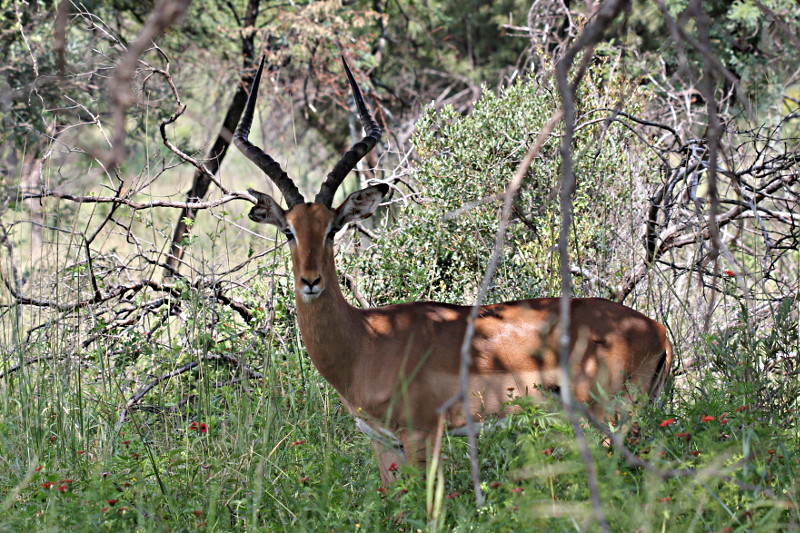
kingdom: Animalia
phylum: Chordata
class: Mammalia
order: Artiodactyla
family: Bovidae
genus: Aepyceros
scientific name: Aepyceros melampus
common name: Impala
